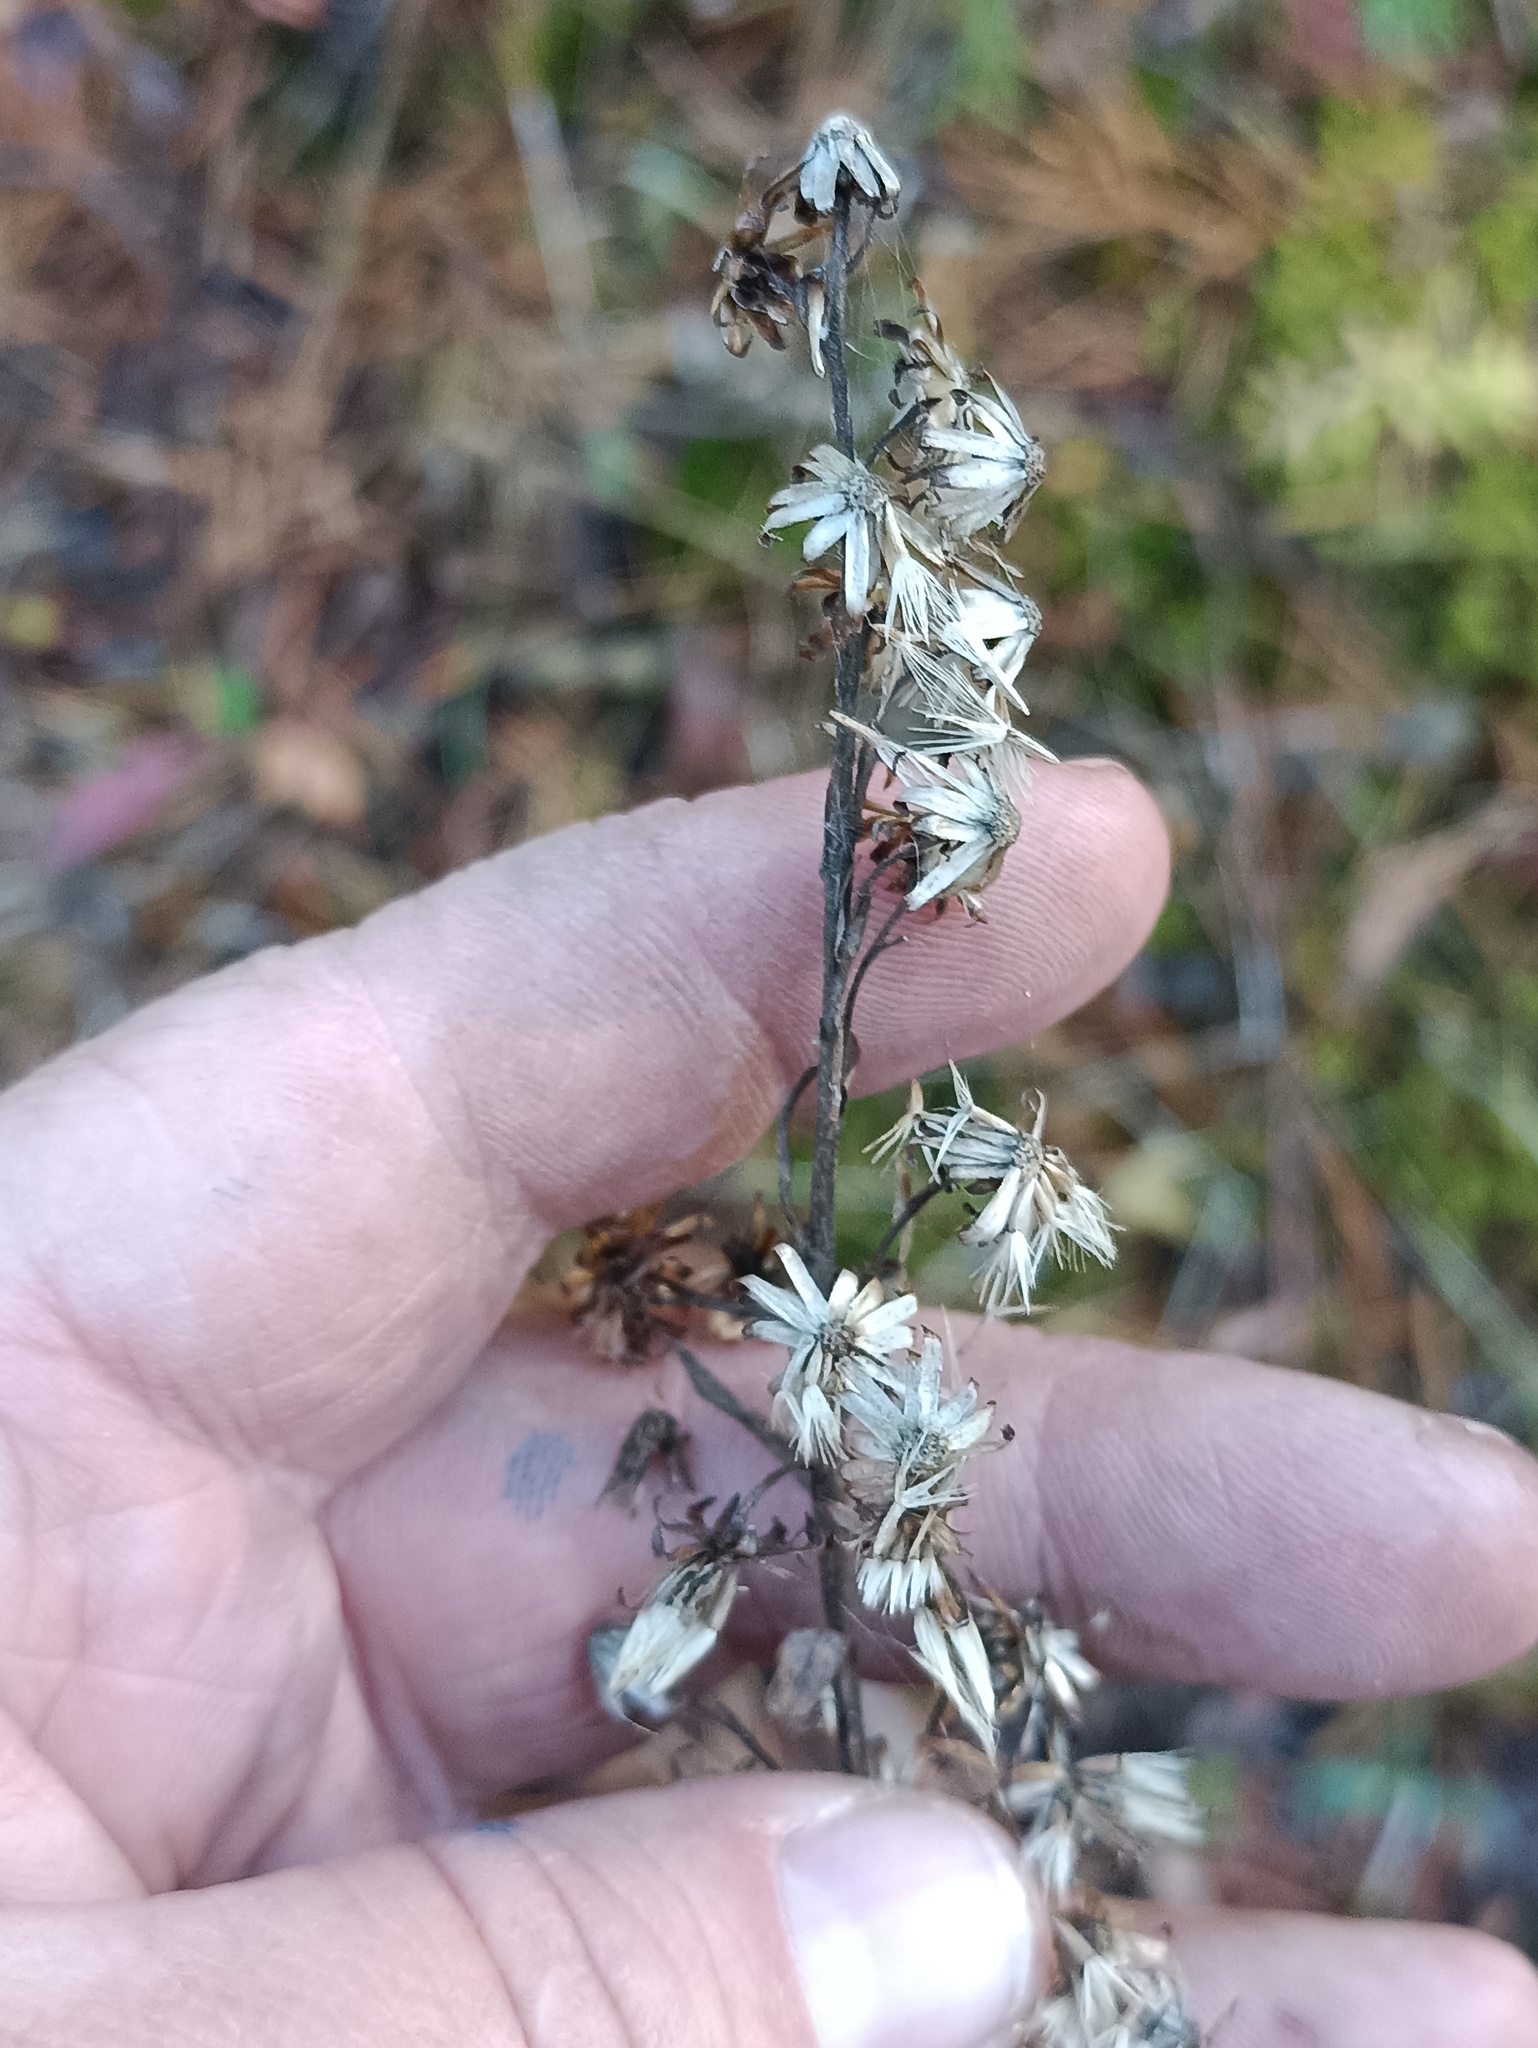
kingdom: Plantae
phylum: Tracheophyta
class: Magnoliopsida
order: Asterales
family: Asteraceae
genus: Solidago
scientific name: Solidago virgaurea
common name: Goldenrod
